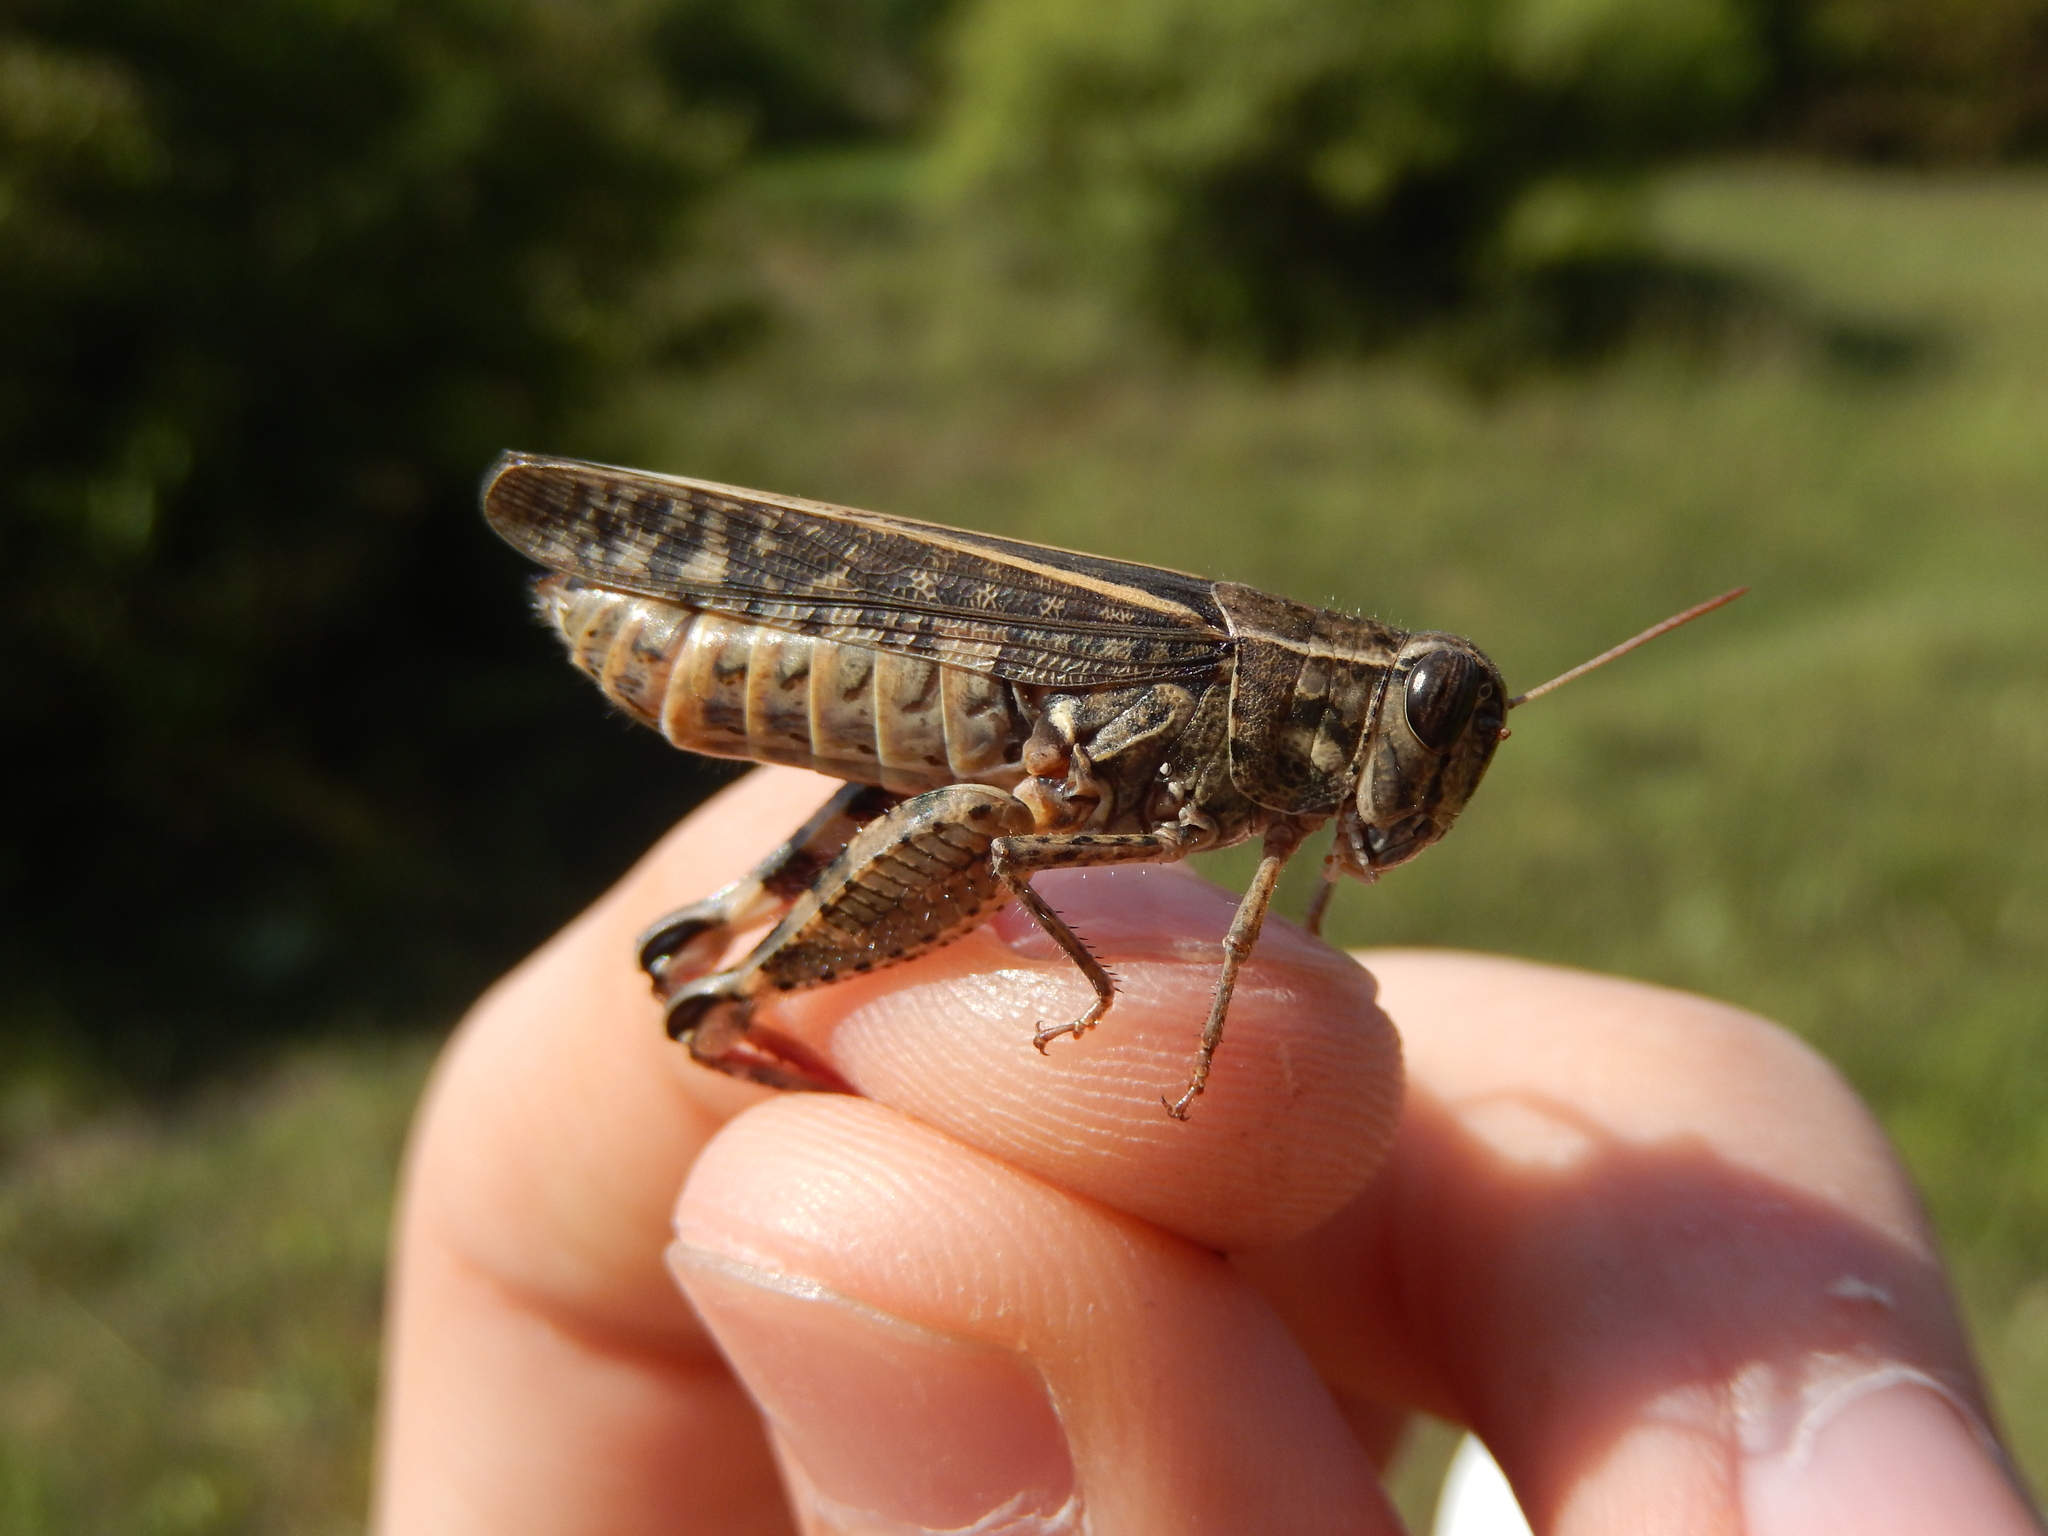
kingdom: Animalia
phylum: Arthropoda
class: Insecta
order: Orthoptera
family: Acrididae
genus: Calliptamus
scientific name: Calliptamus italicus
